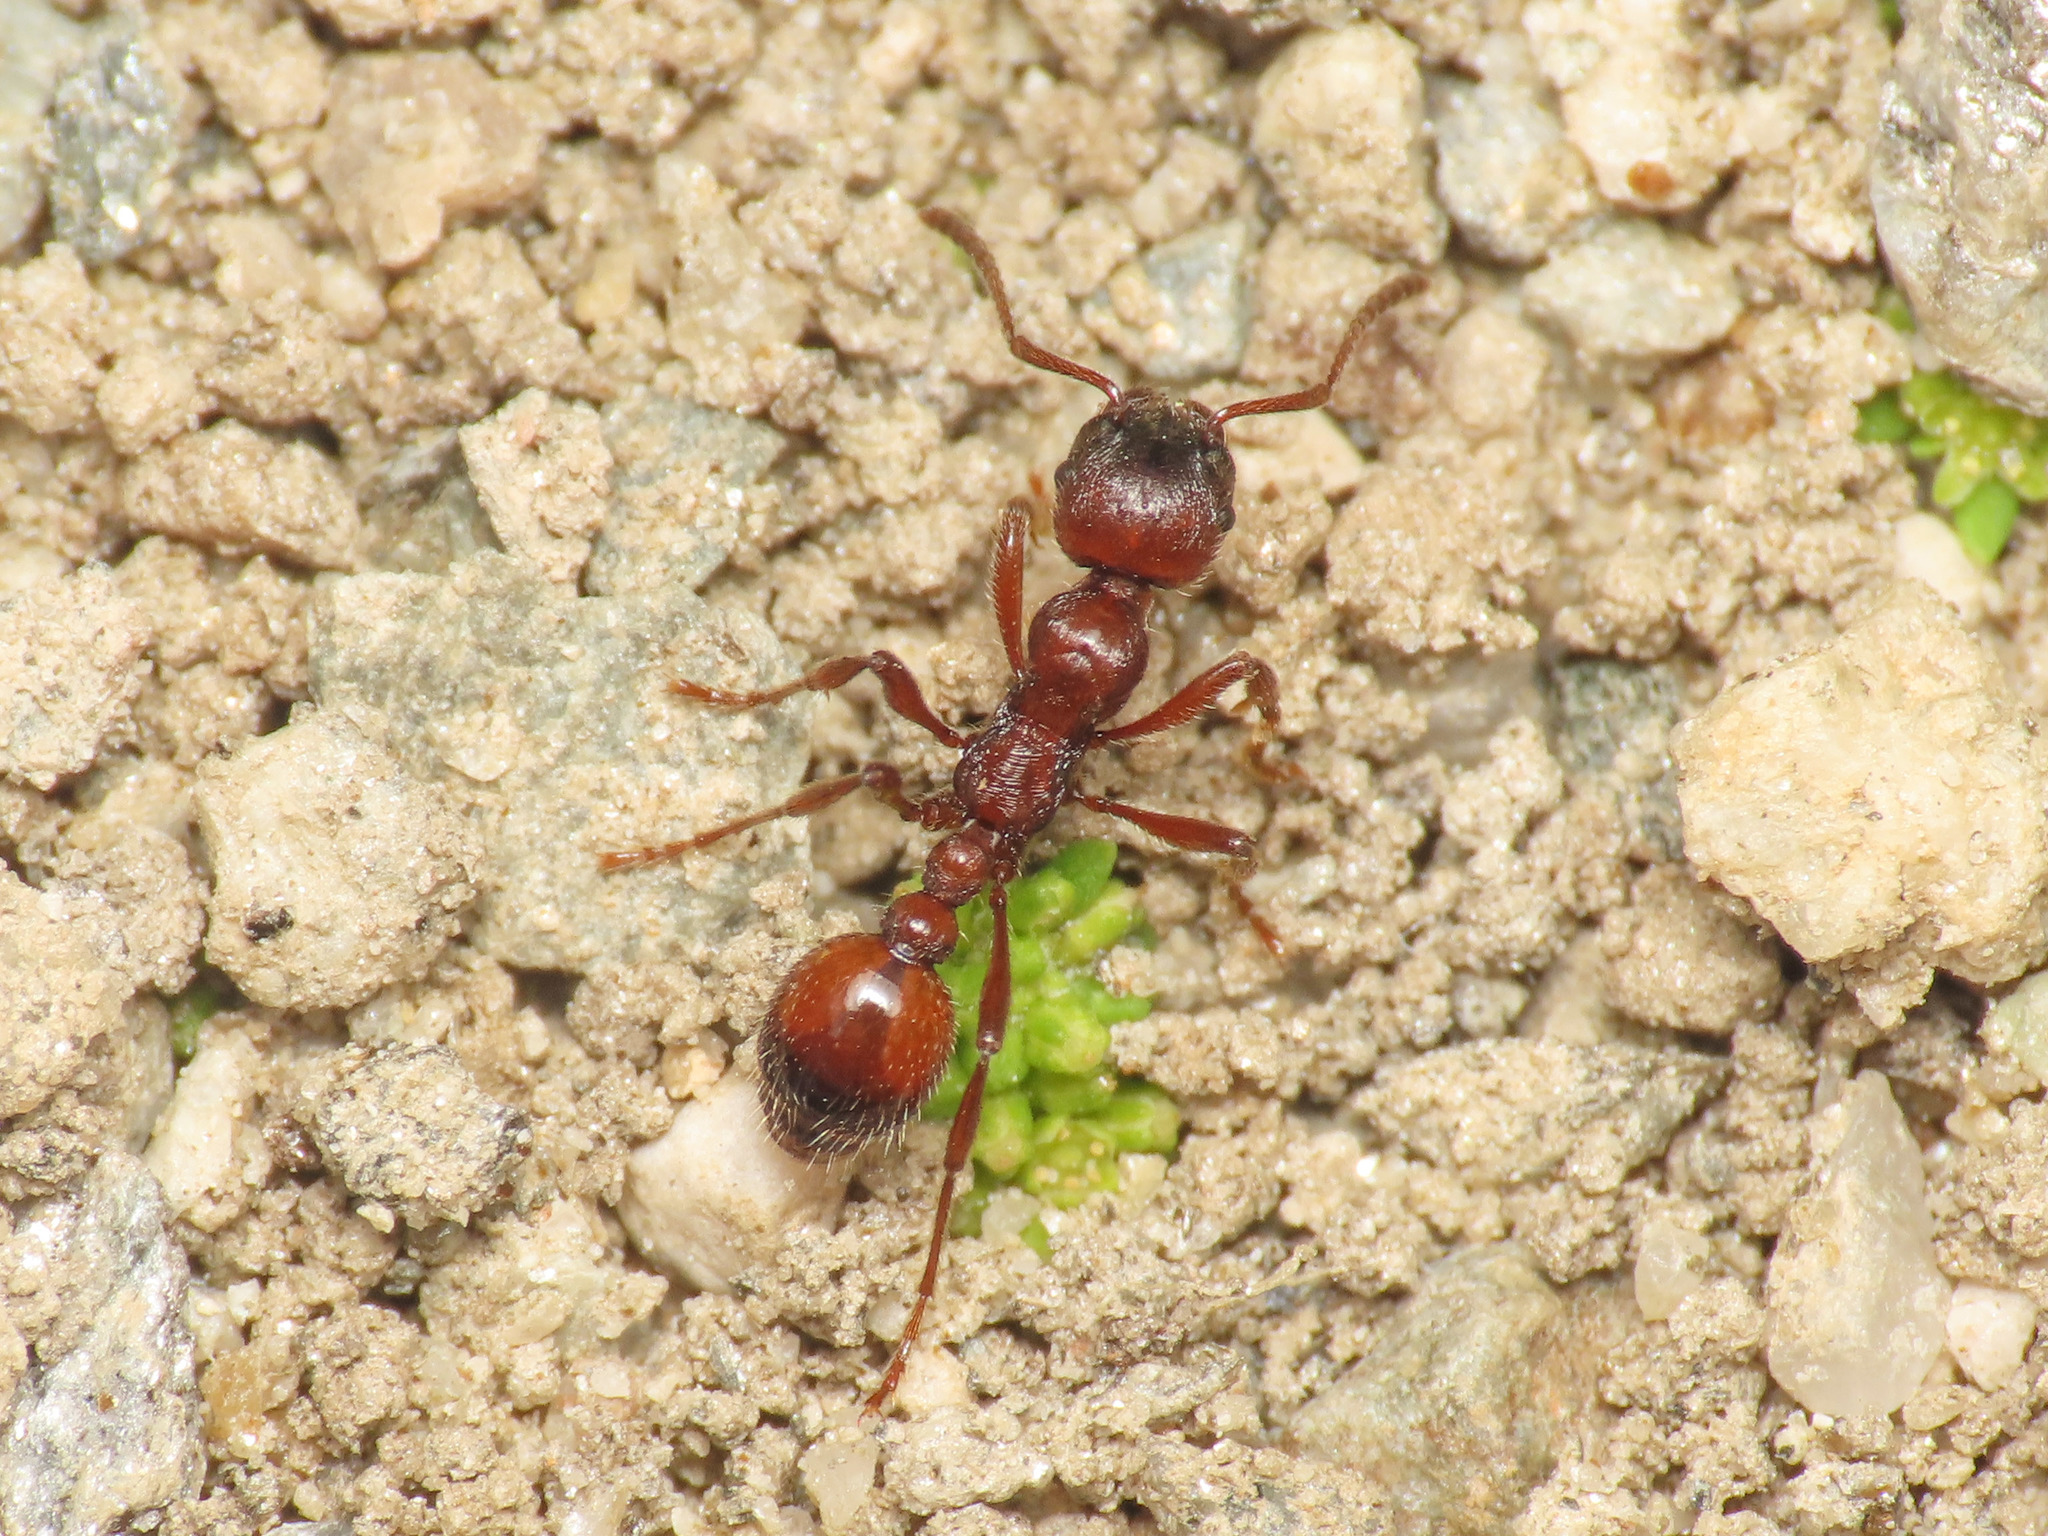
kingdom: Animalia
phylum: Arthropoda
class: Insecta
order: Hymenoptera
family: Formicidae
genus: Manica
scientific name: Manica rubida
